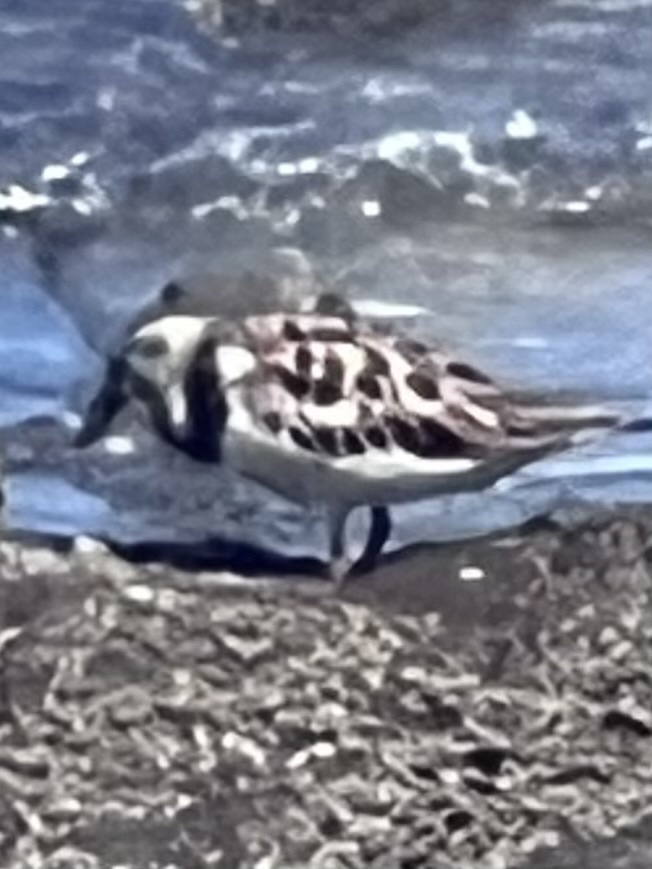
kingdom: Animalia
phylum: Chordata
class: Aves
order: Charadriiformes
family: Scolopacidae
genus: Arenaria
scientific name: Arenaria interpres
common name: Ruddy turnstone
